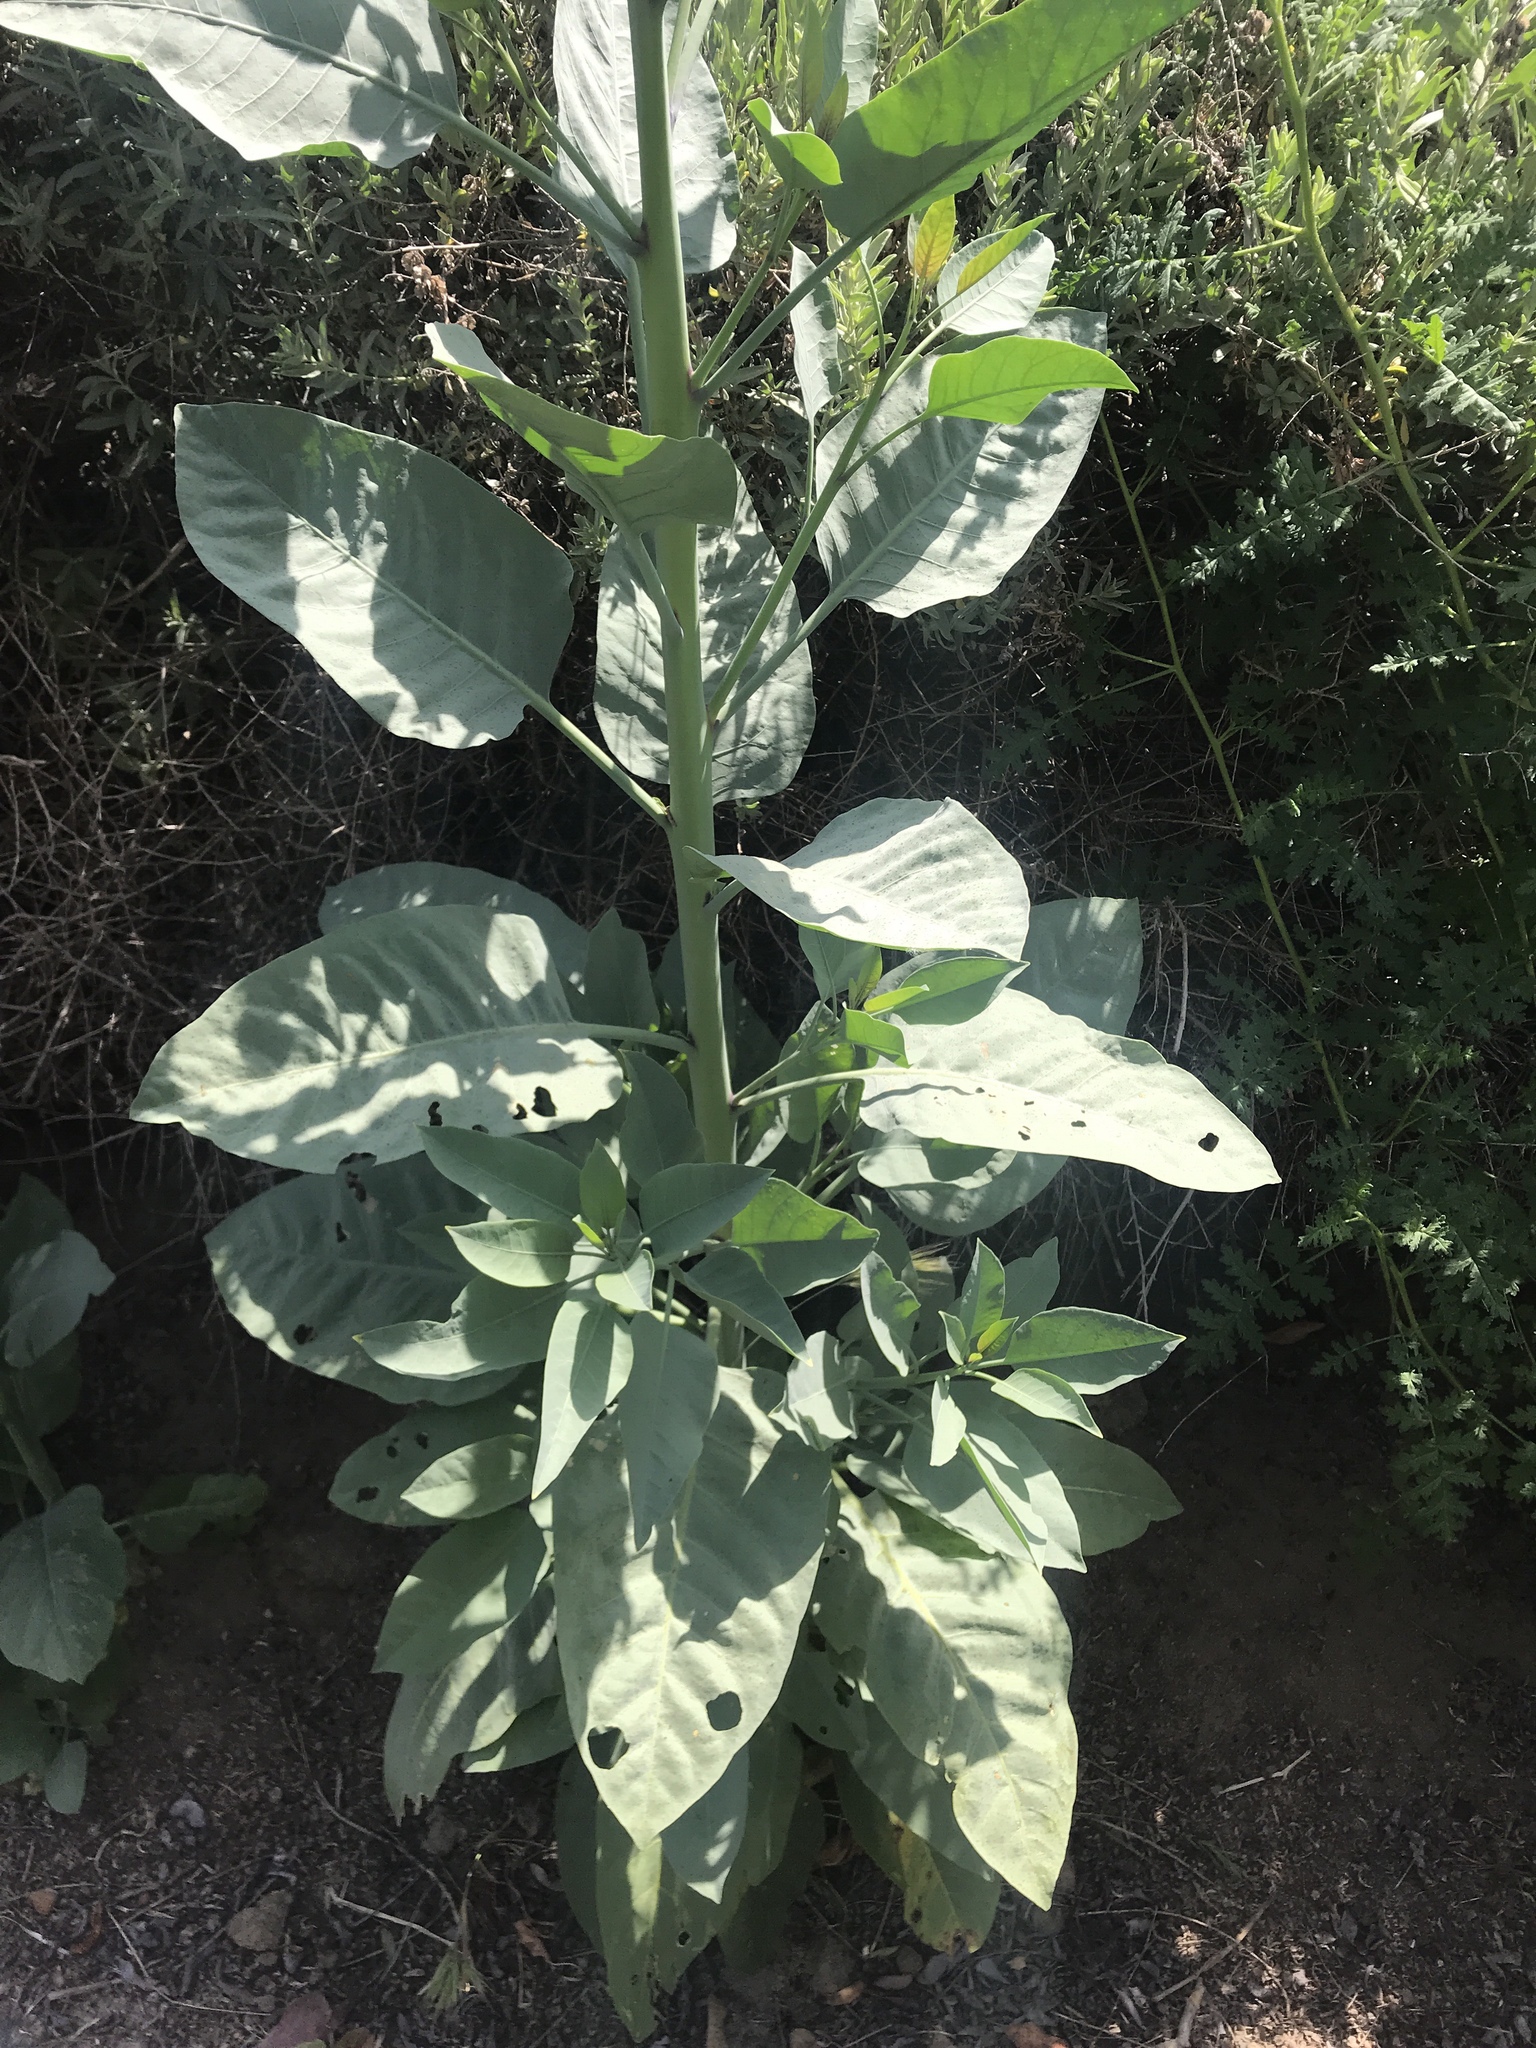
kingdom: Plantae
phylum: Tracheophyta
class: Magnoliopsida
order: Solanales
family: Solanaceae
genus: Nicotiana
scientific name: Nicotiana glauca
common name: Tree tobacco
